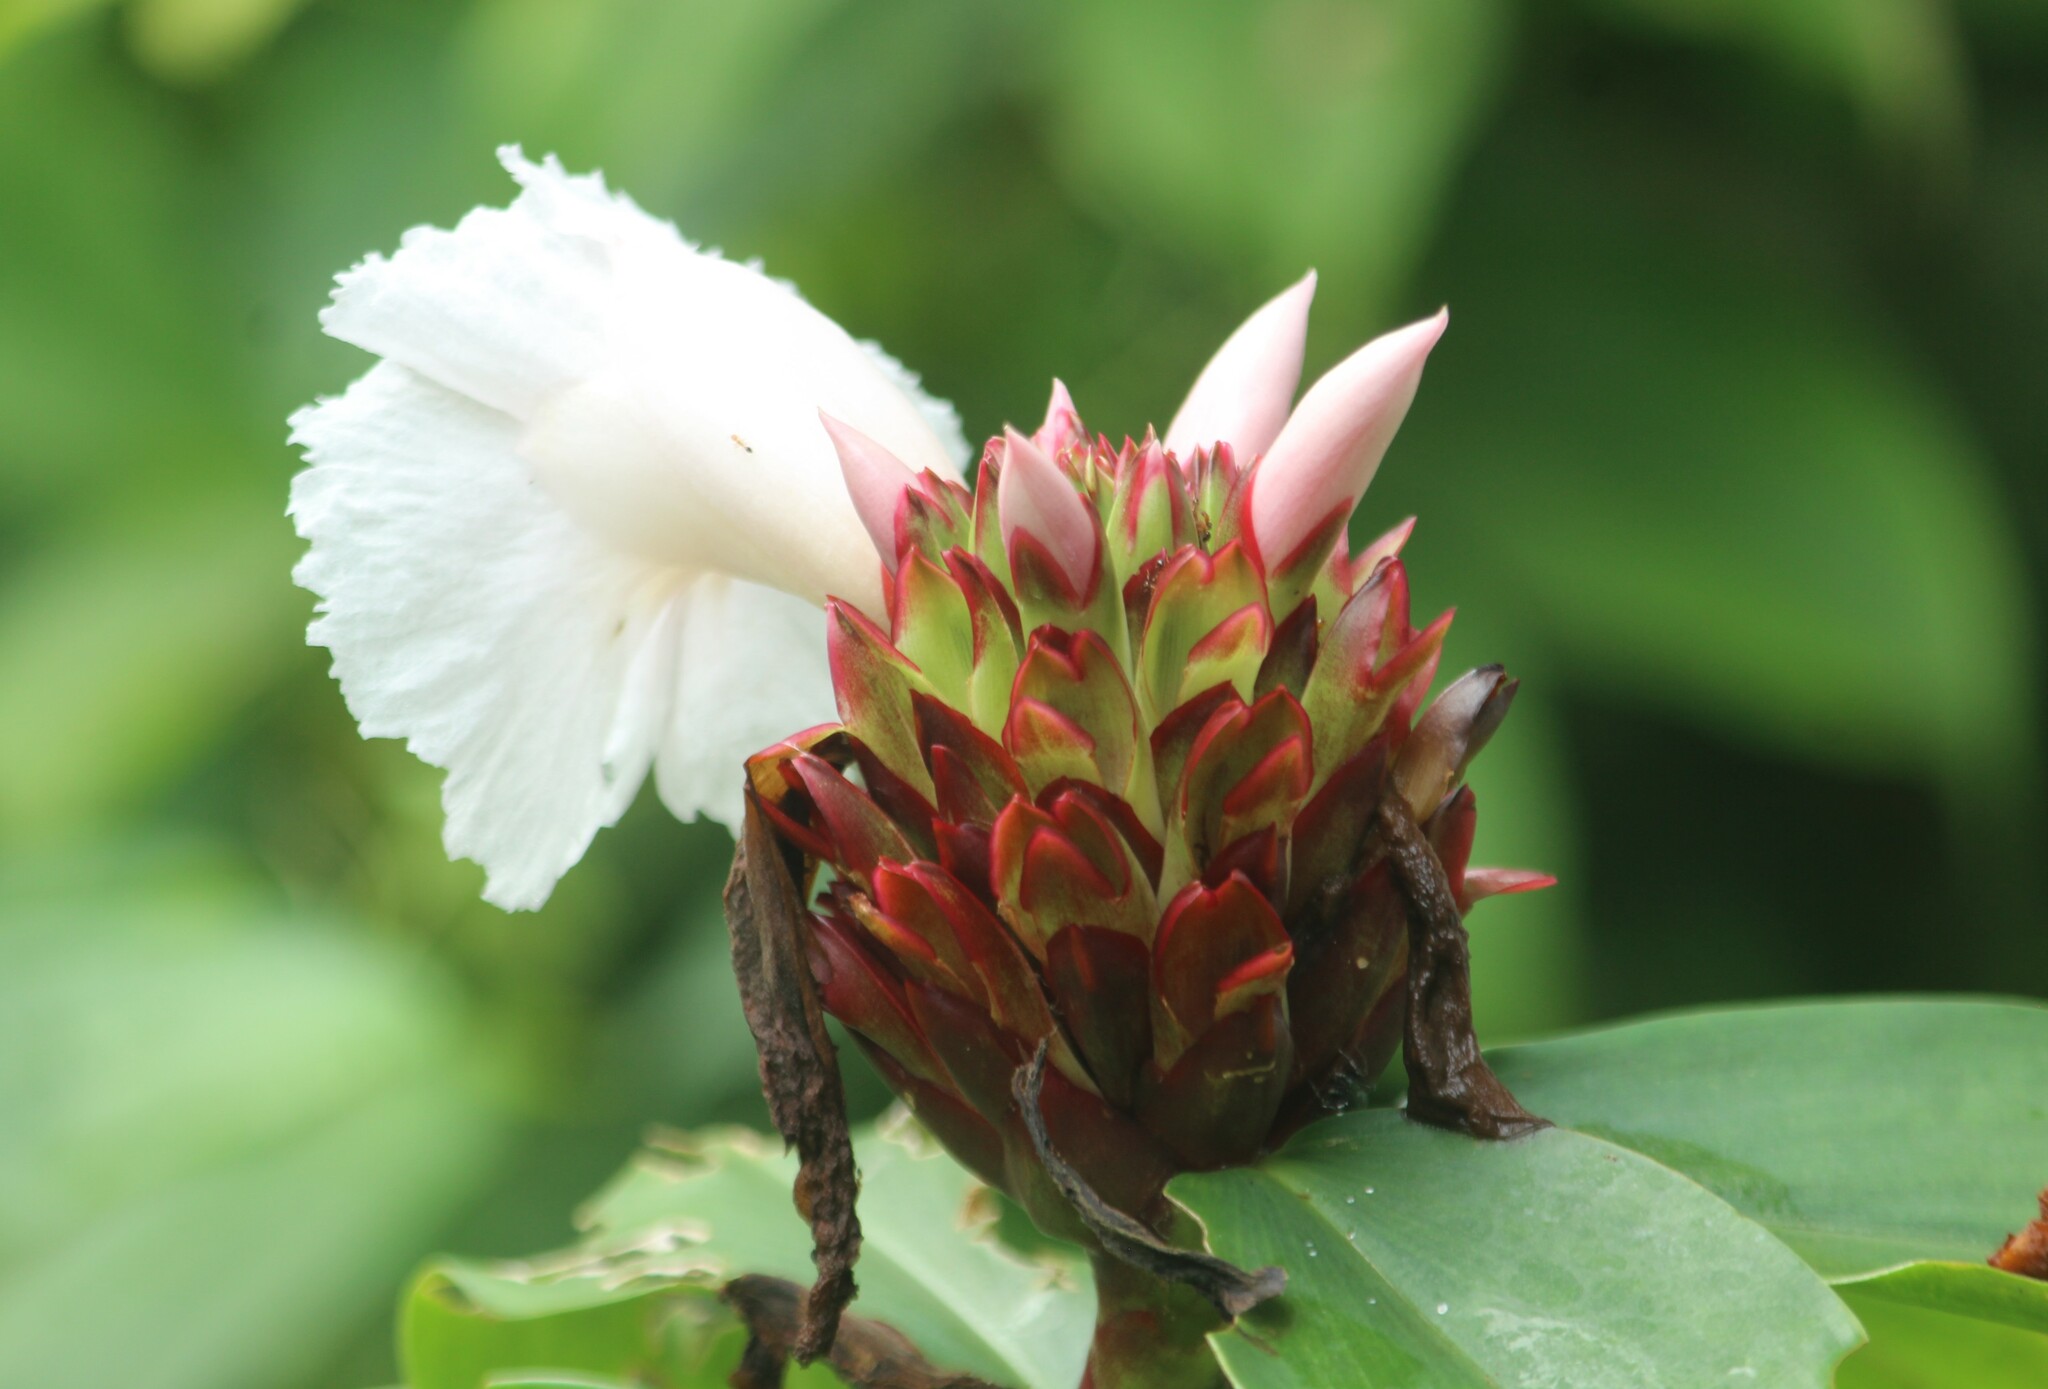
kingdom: Plantae
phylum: Tracheophyta
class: Liliopsida
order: Zingiberales
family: Costaceae
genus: Hellenia
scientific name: Hellenia speciosa
